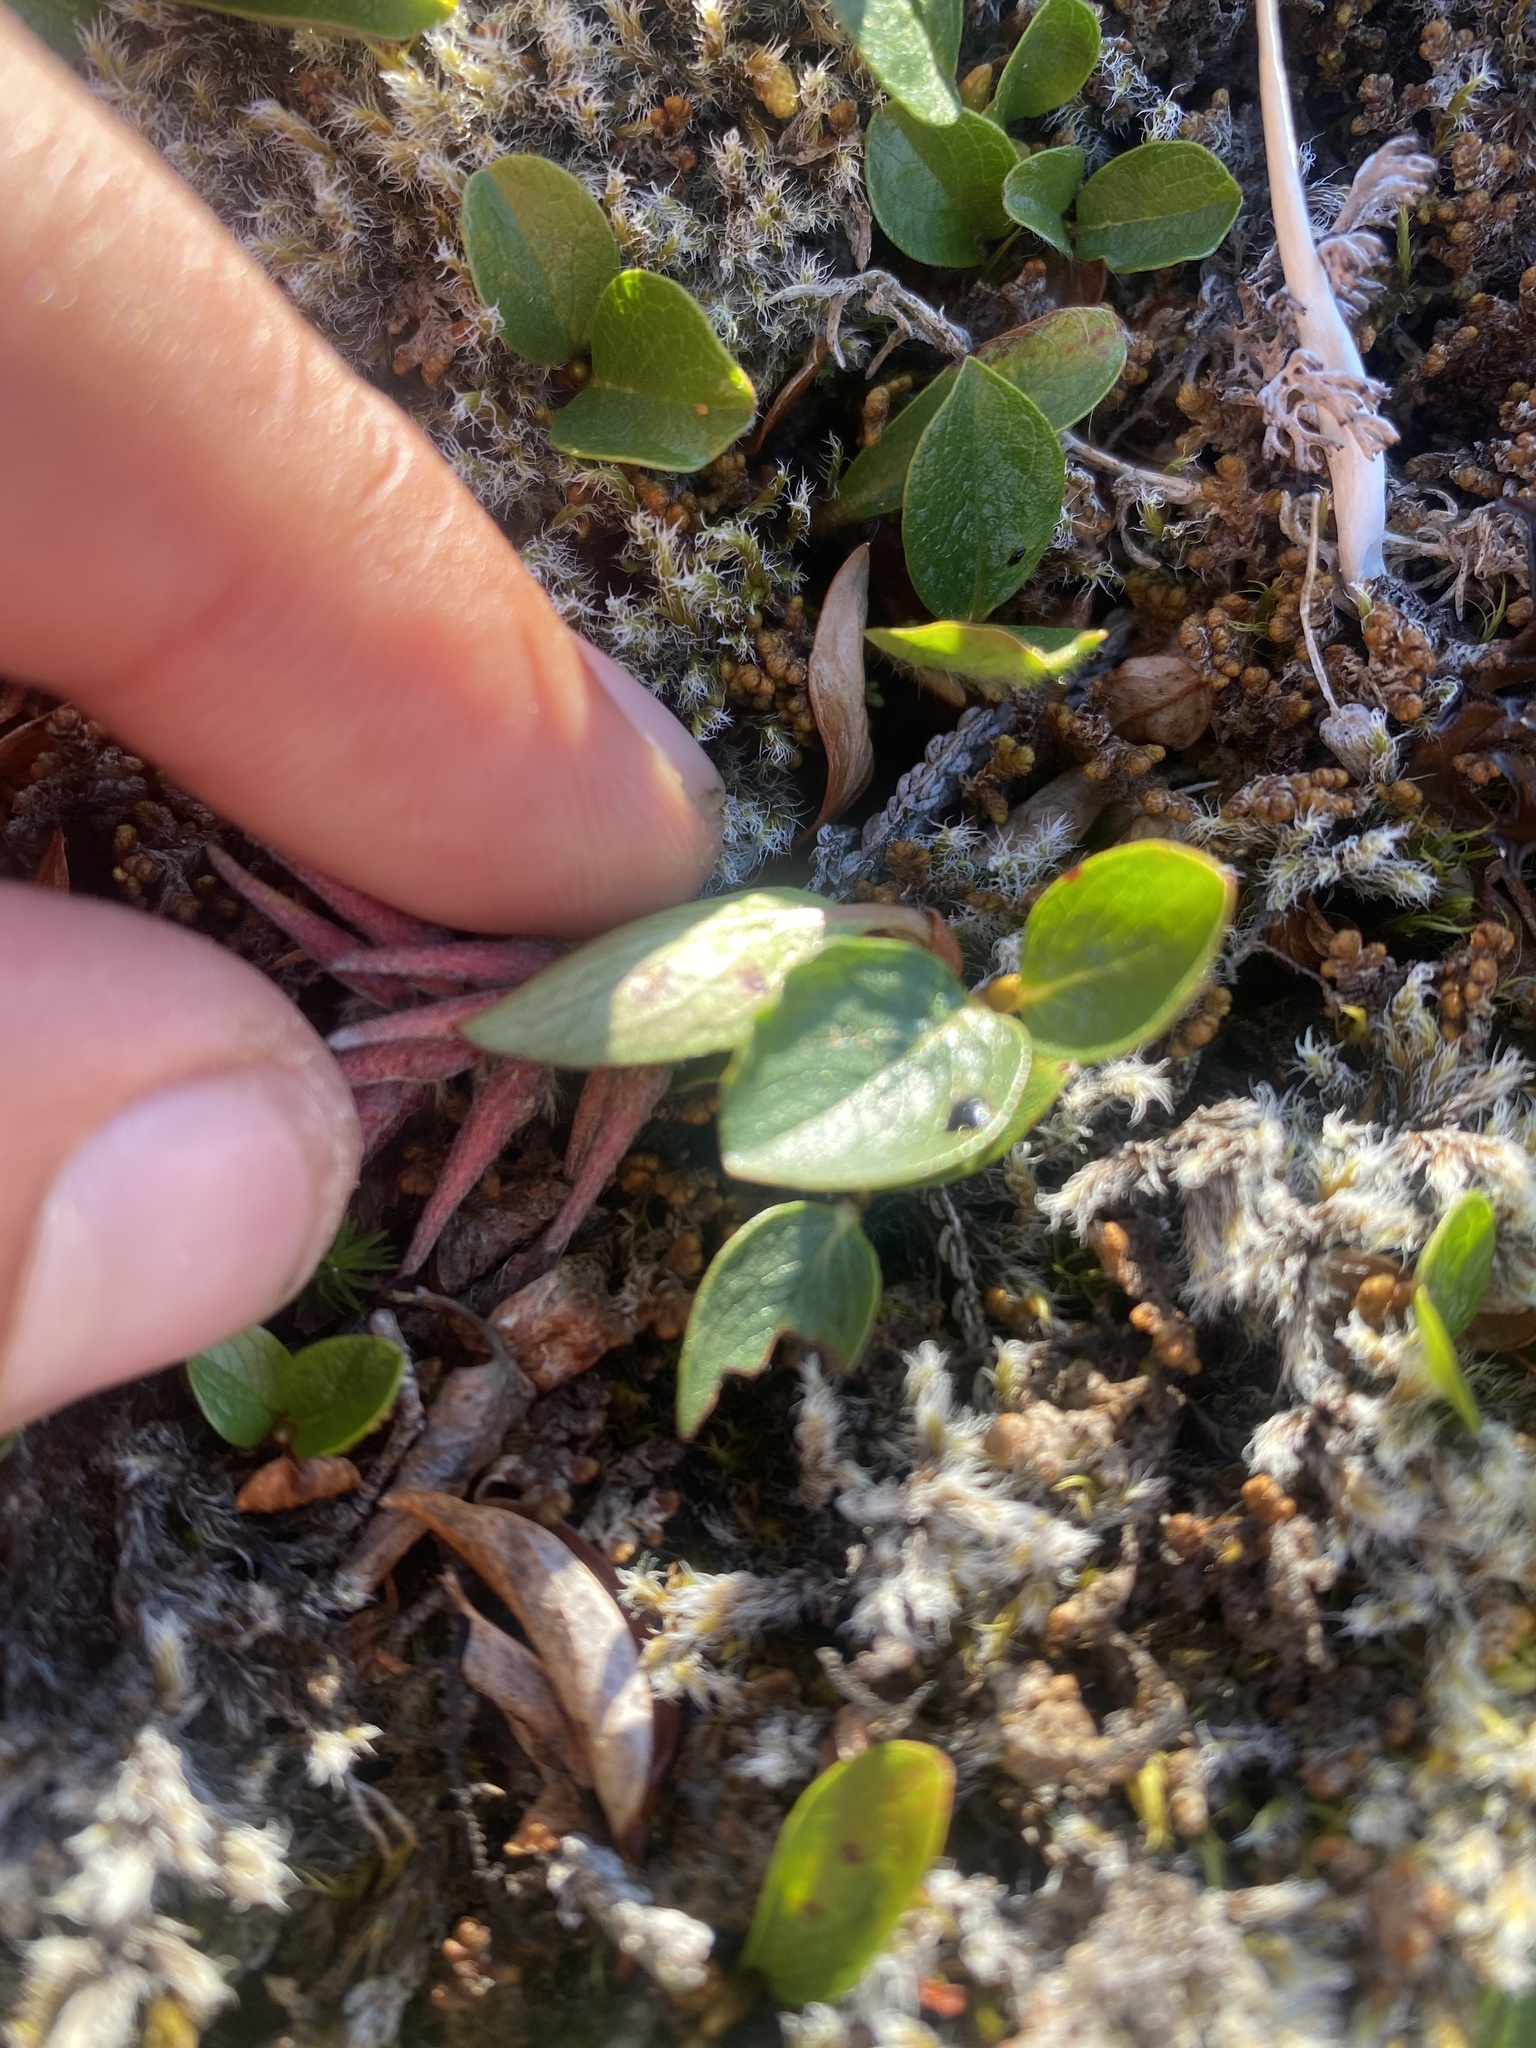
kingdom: Plantae
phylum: Tracheophyta
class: Magnoliopsida
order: Malpighiales
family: Salicaceae
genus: Salix
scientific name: Salix polaris
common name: Polar willow
